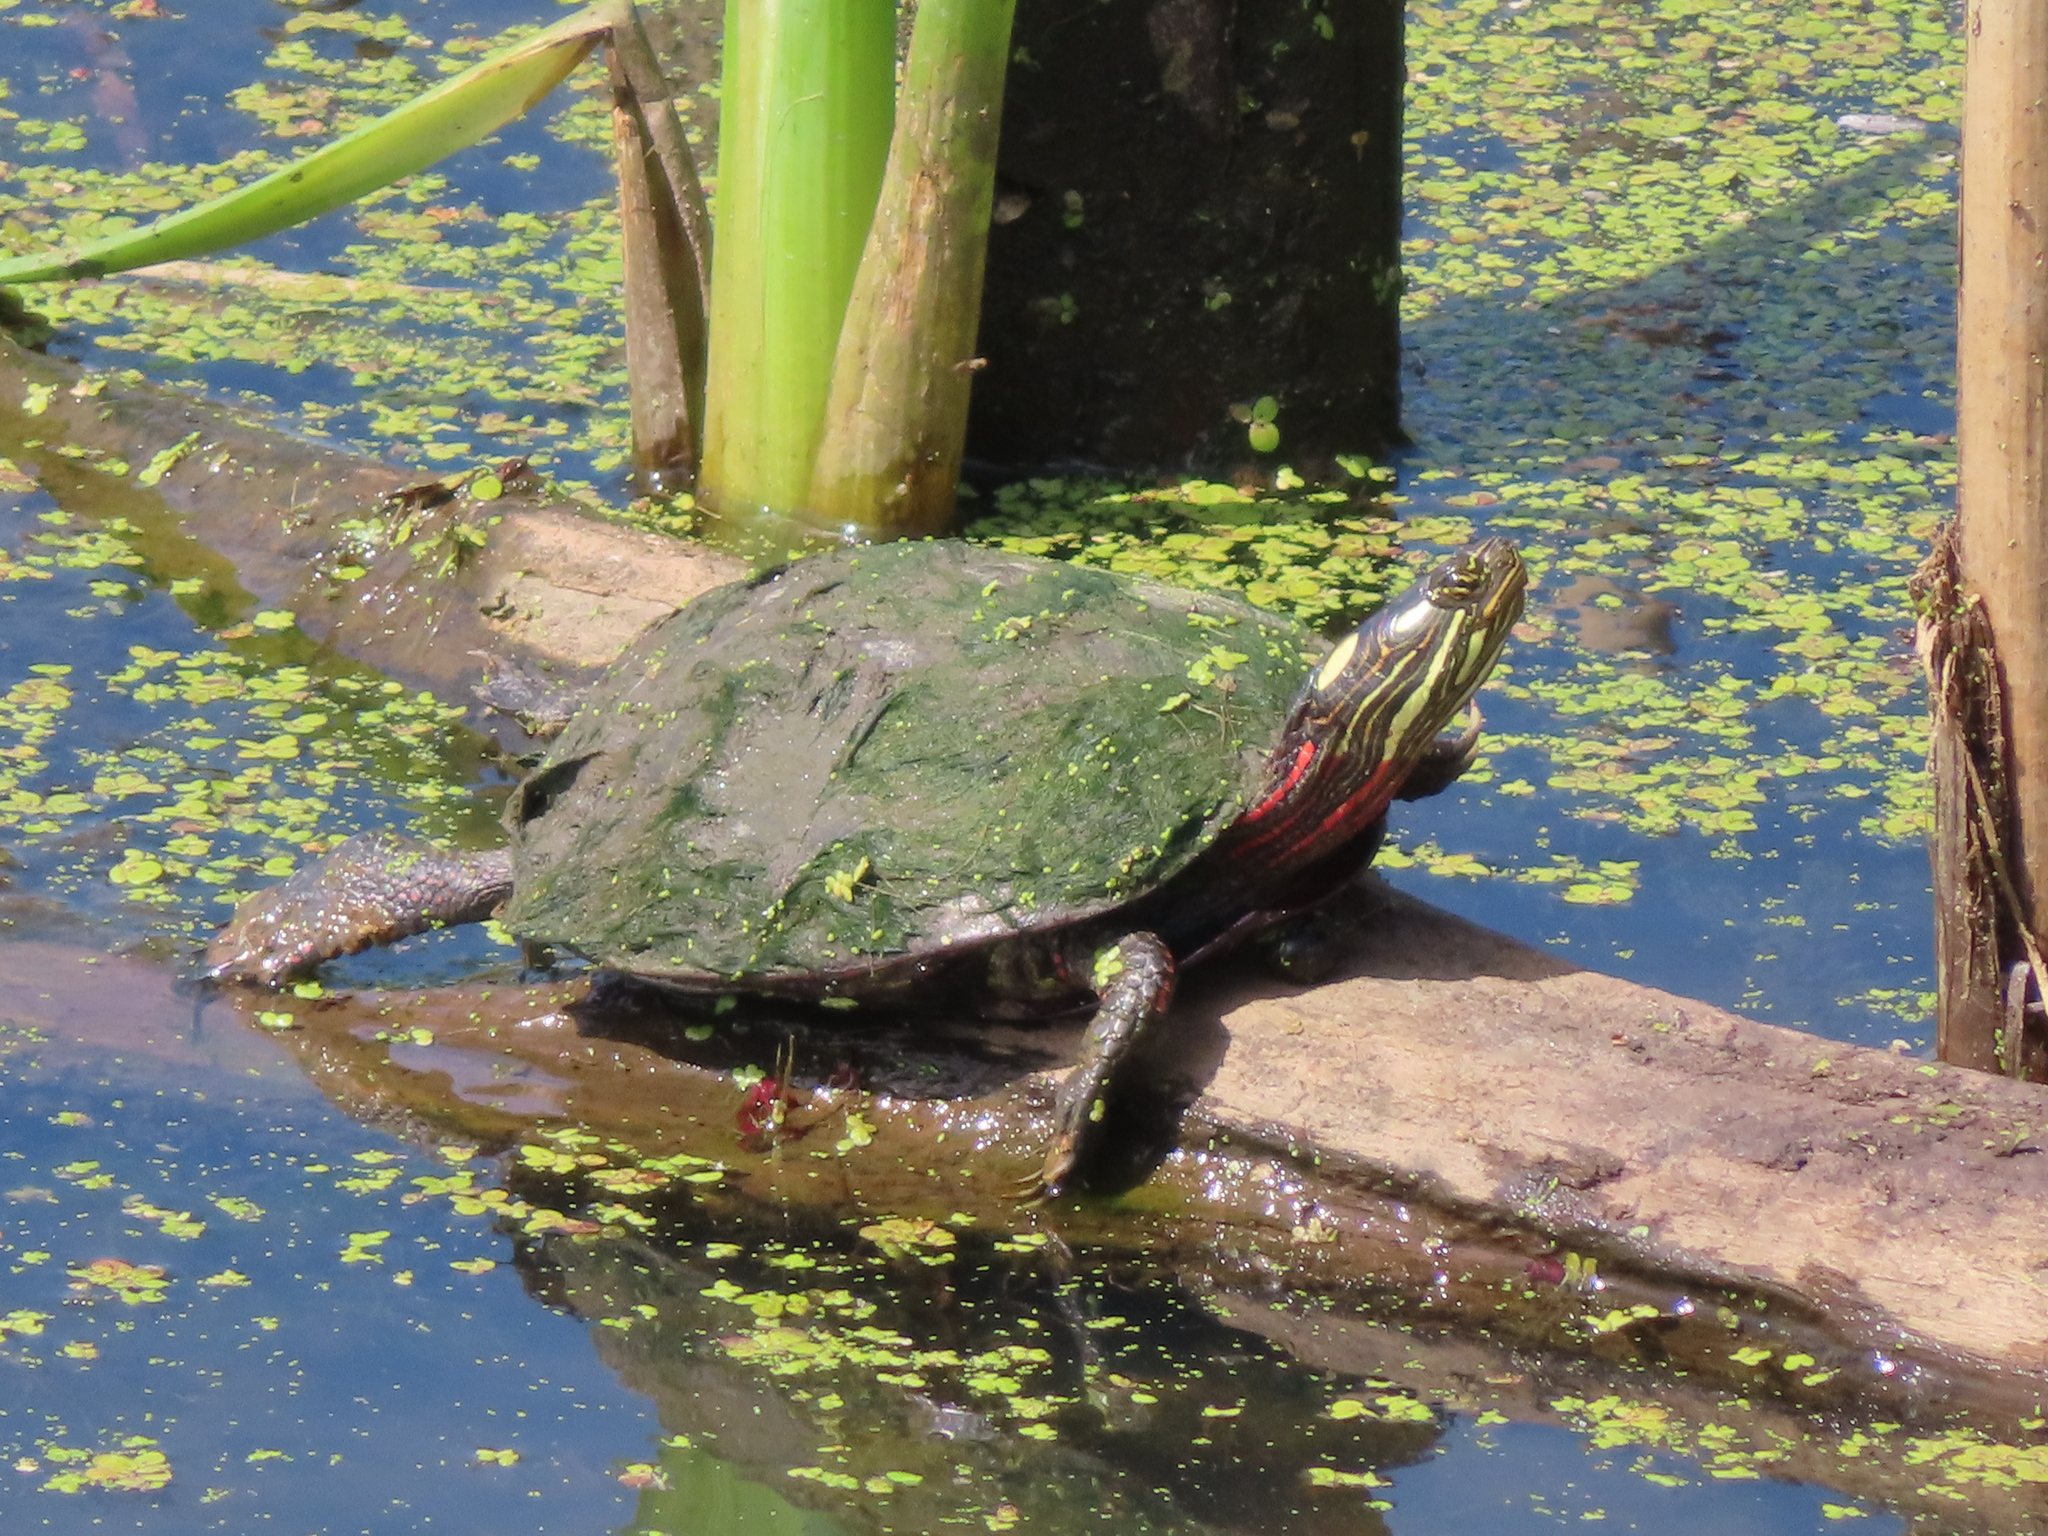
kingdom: Animalia
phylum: Chordata
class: Testudines
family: Emydidae
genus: Chrysemys
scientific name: Chrysemys picta
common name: Painted turtle
